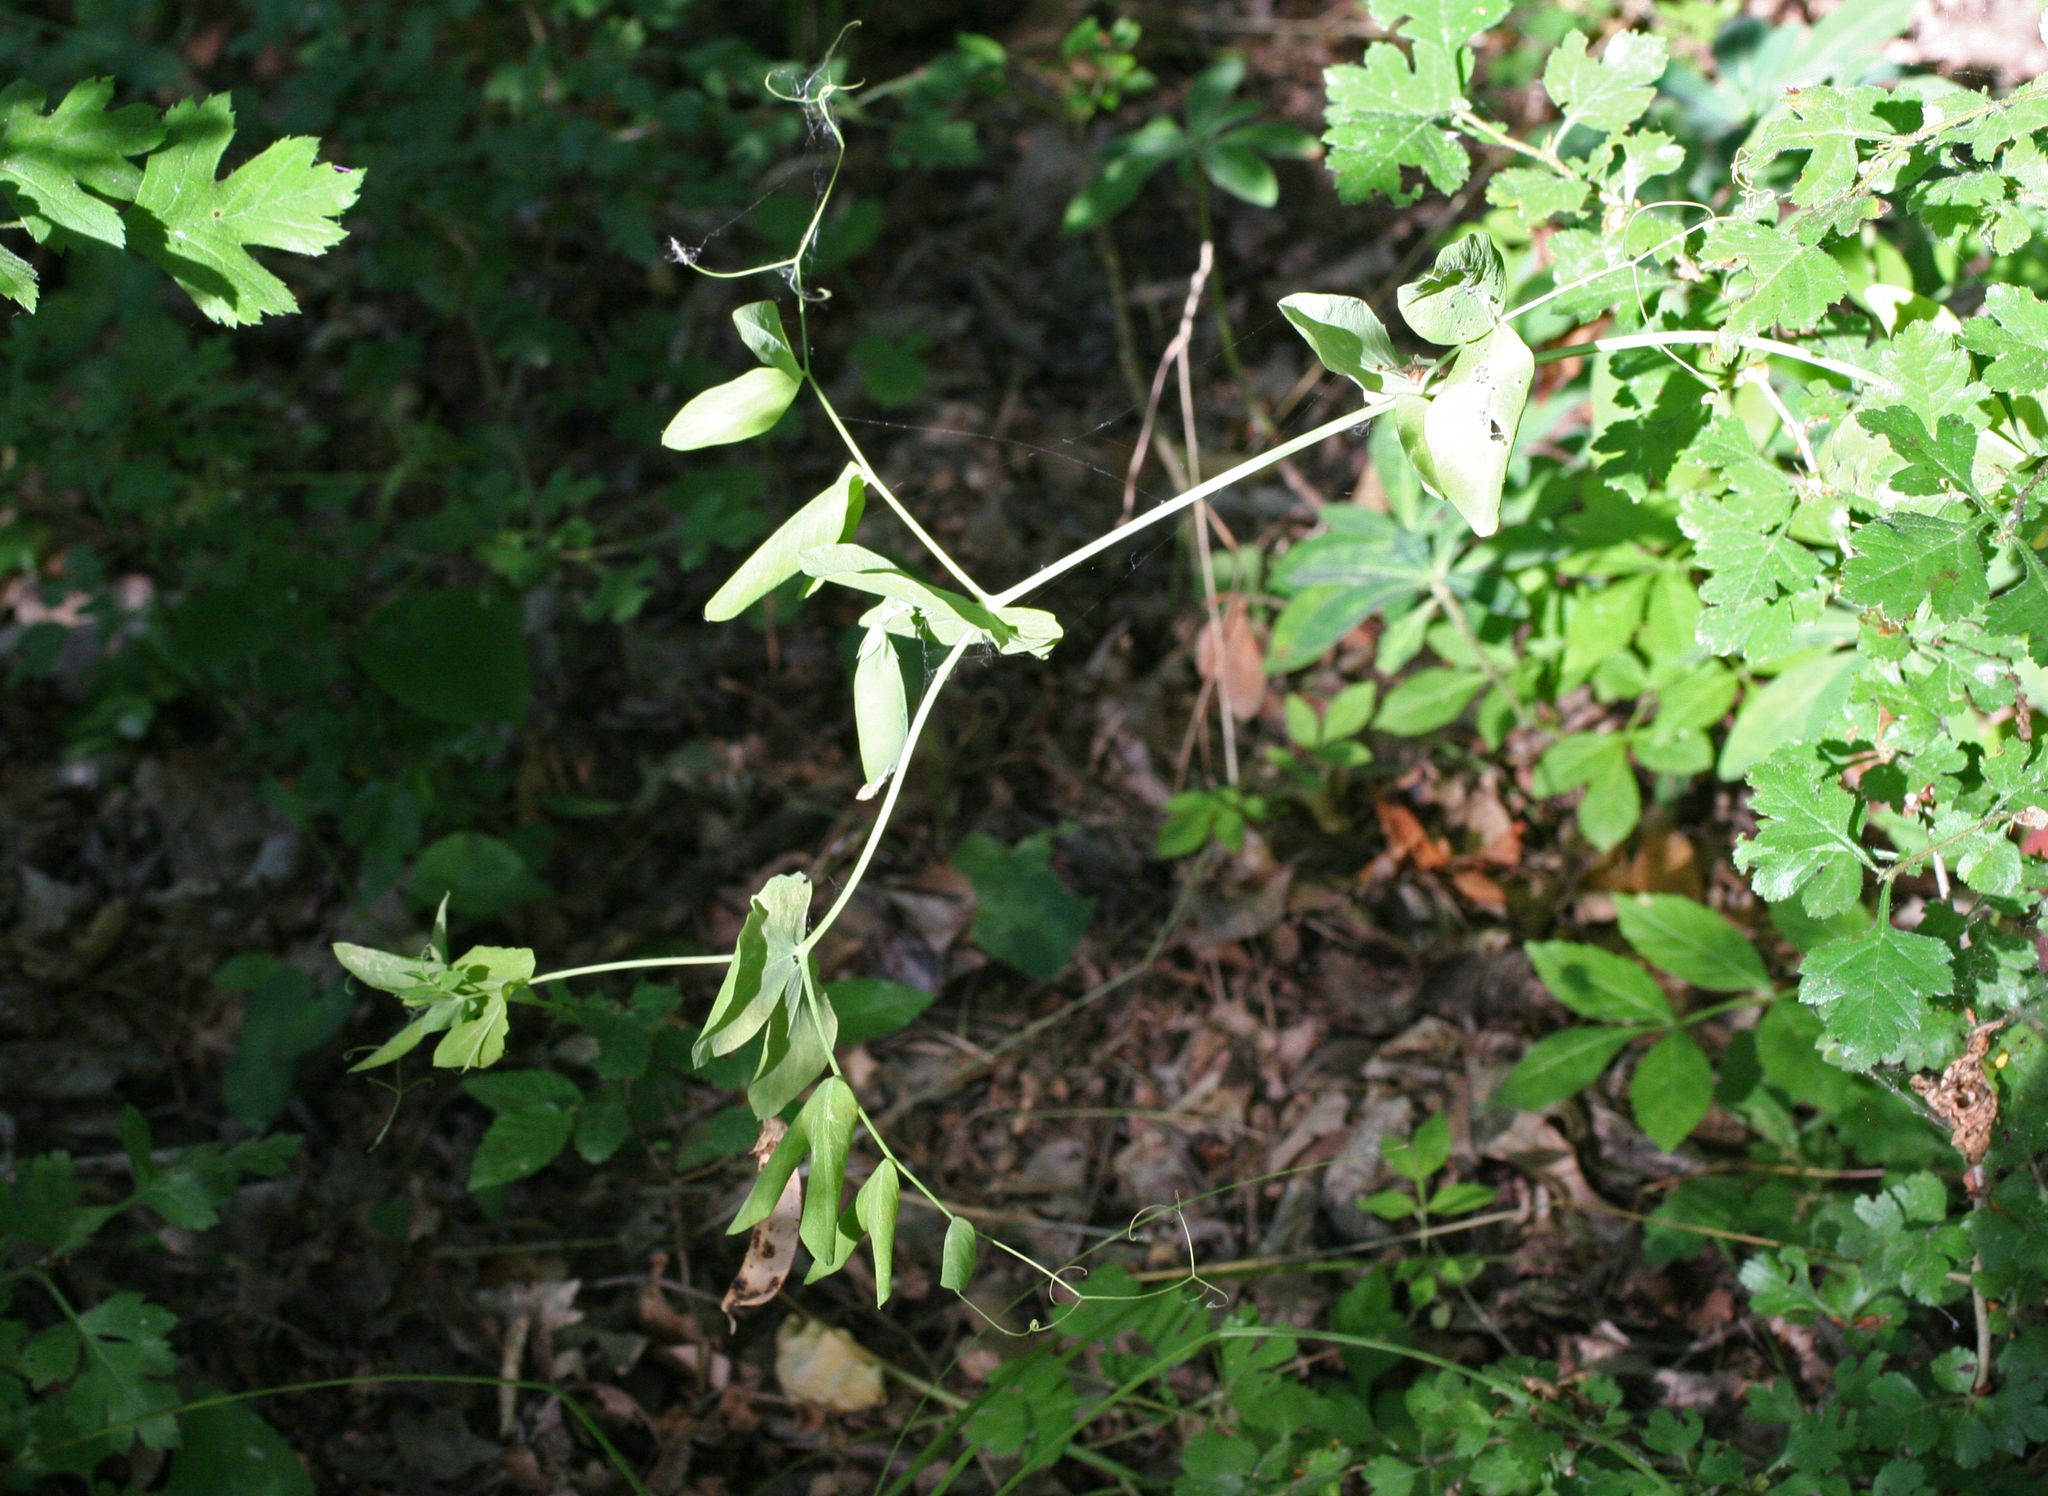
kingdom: Plantae
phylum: Tracheophyta
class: Magnoliopsida
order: Fabales
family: Fabaceae
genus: Lathyrus
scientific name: Lathyrus oleraceus
